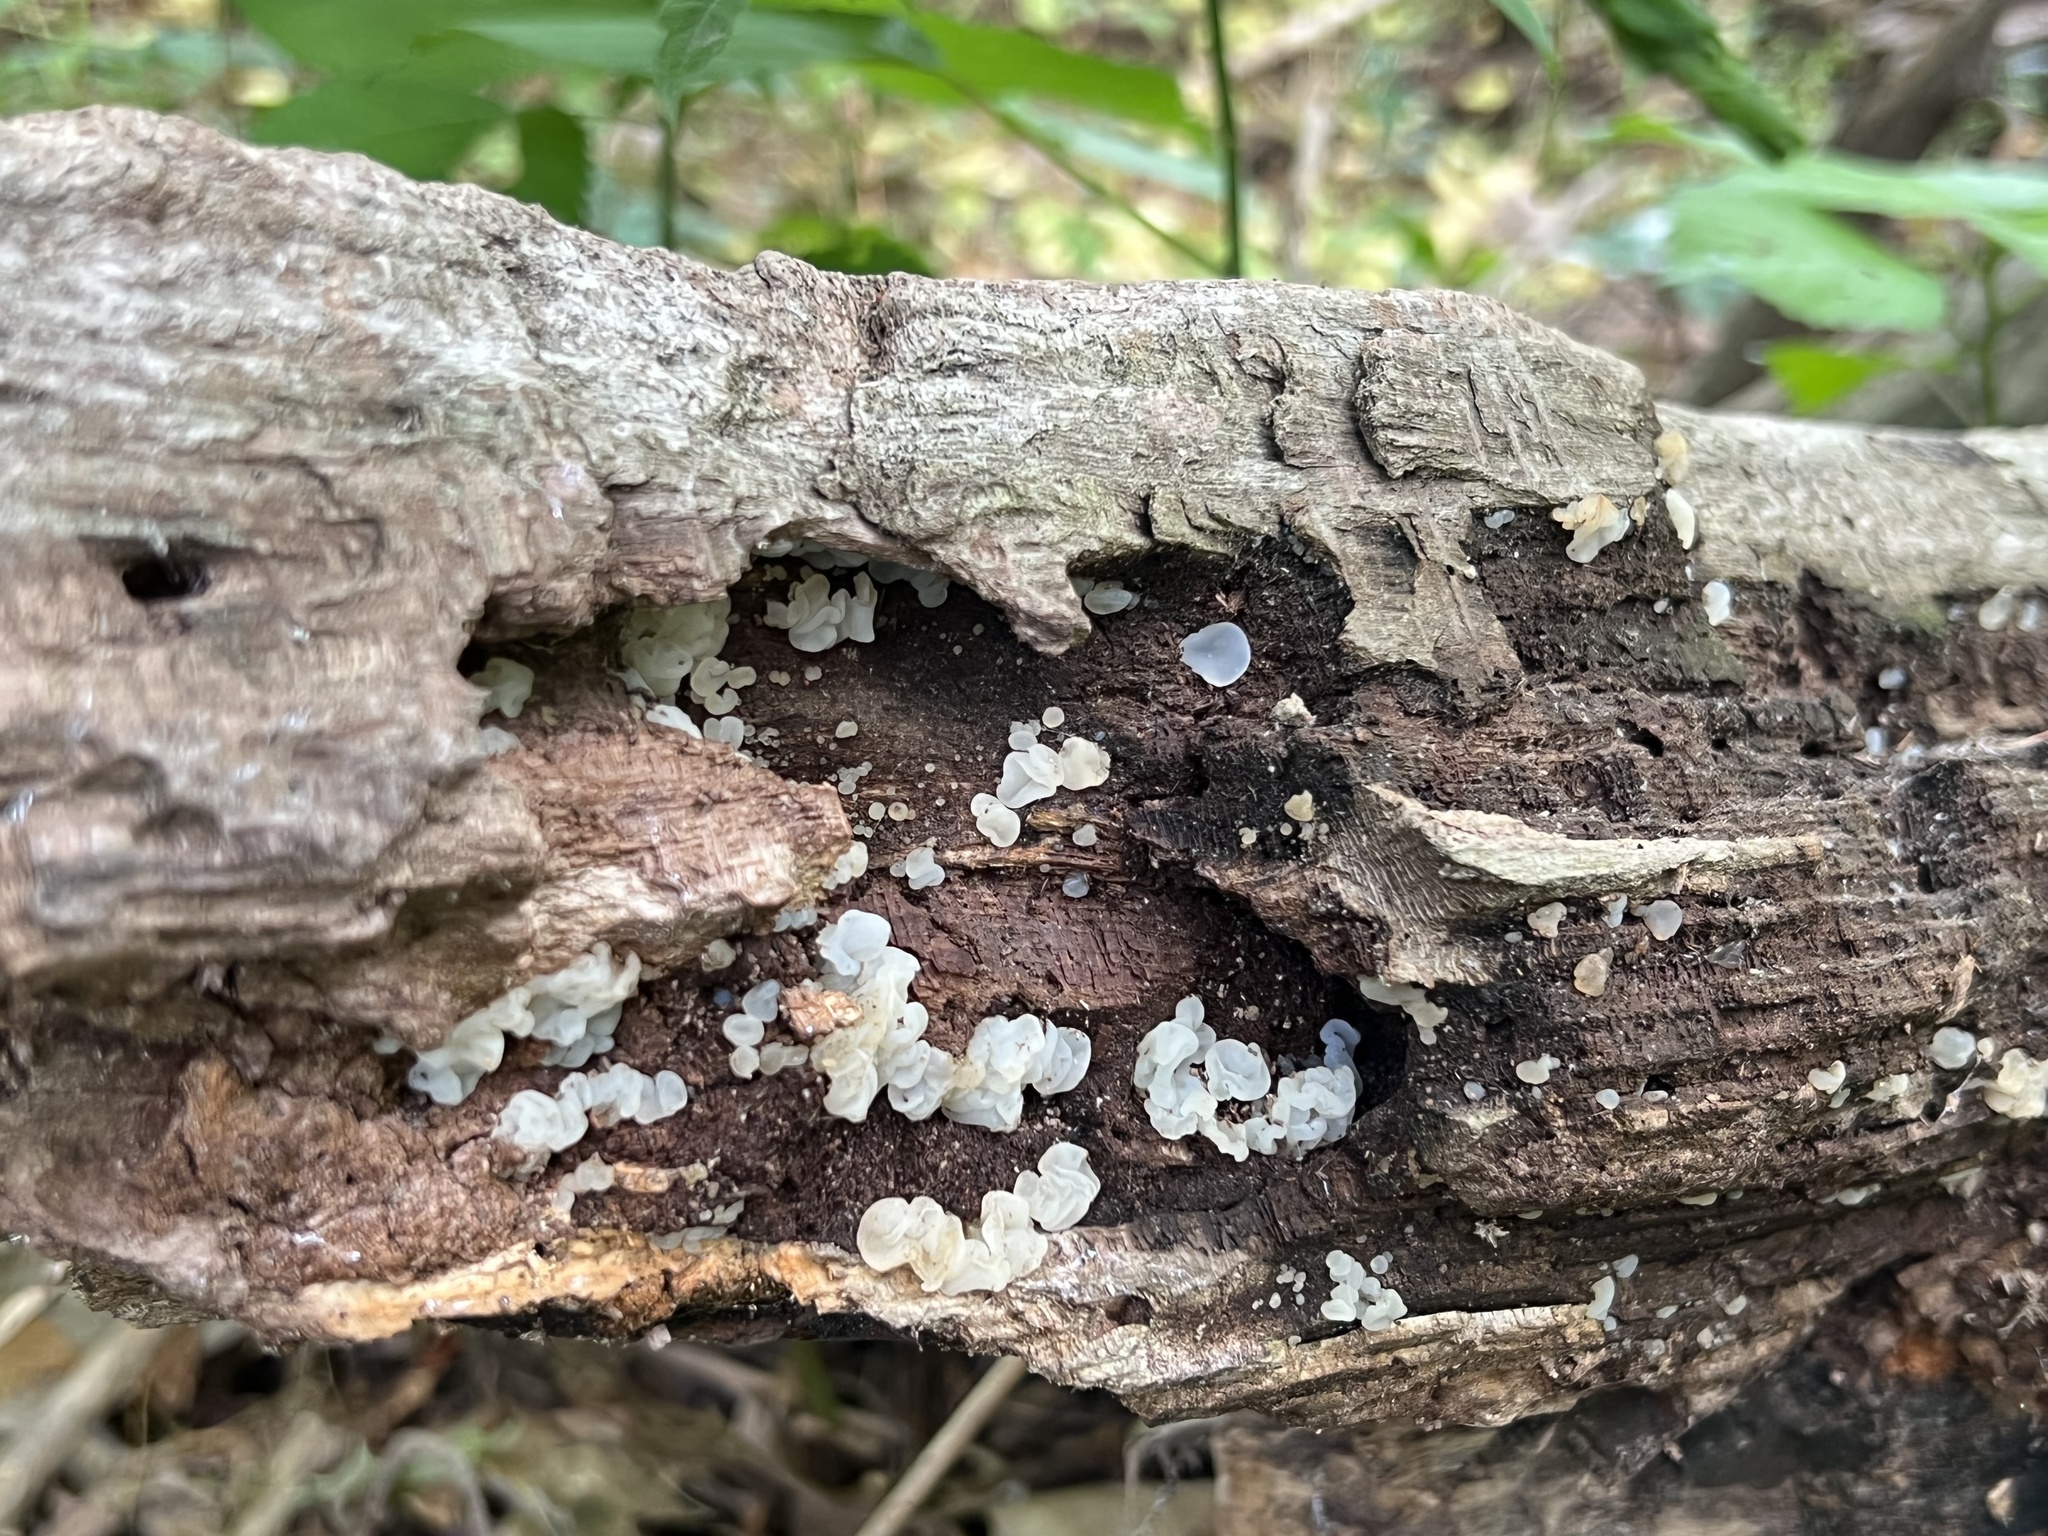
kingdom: Fungi
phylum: Basidiomycota
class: Agaricomycetes
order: Auriculariales
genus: Ductifera
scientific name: Ductifera pululahuana
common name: White jelly fungus
